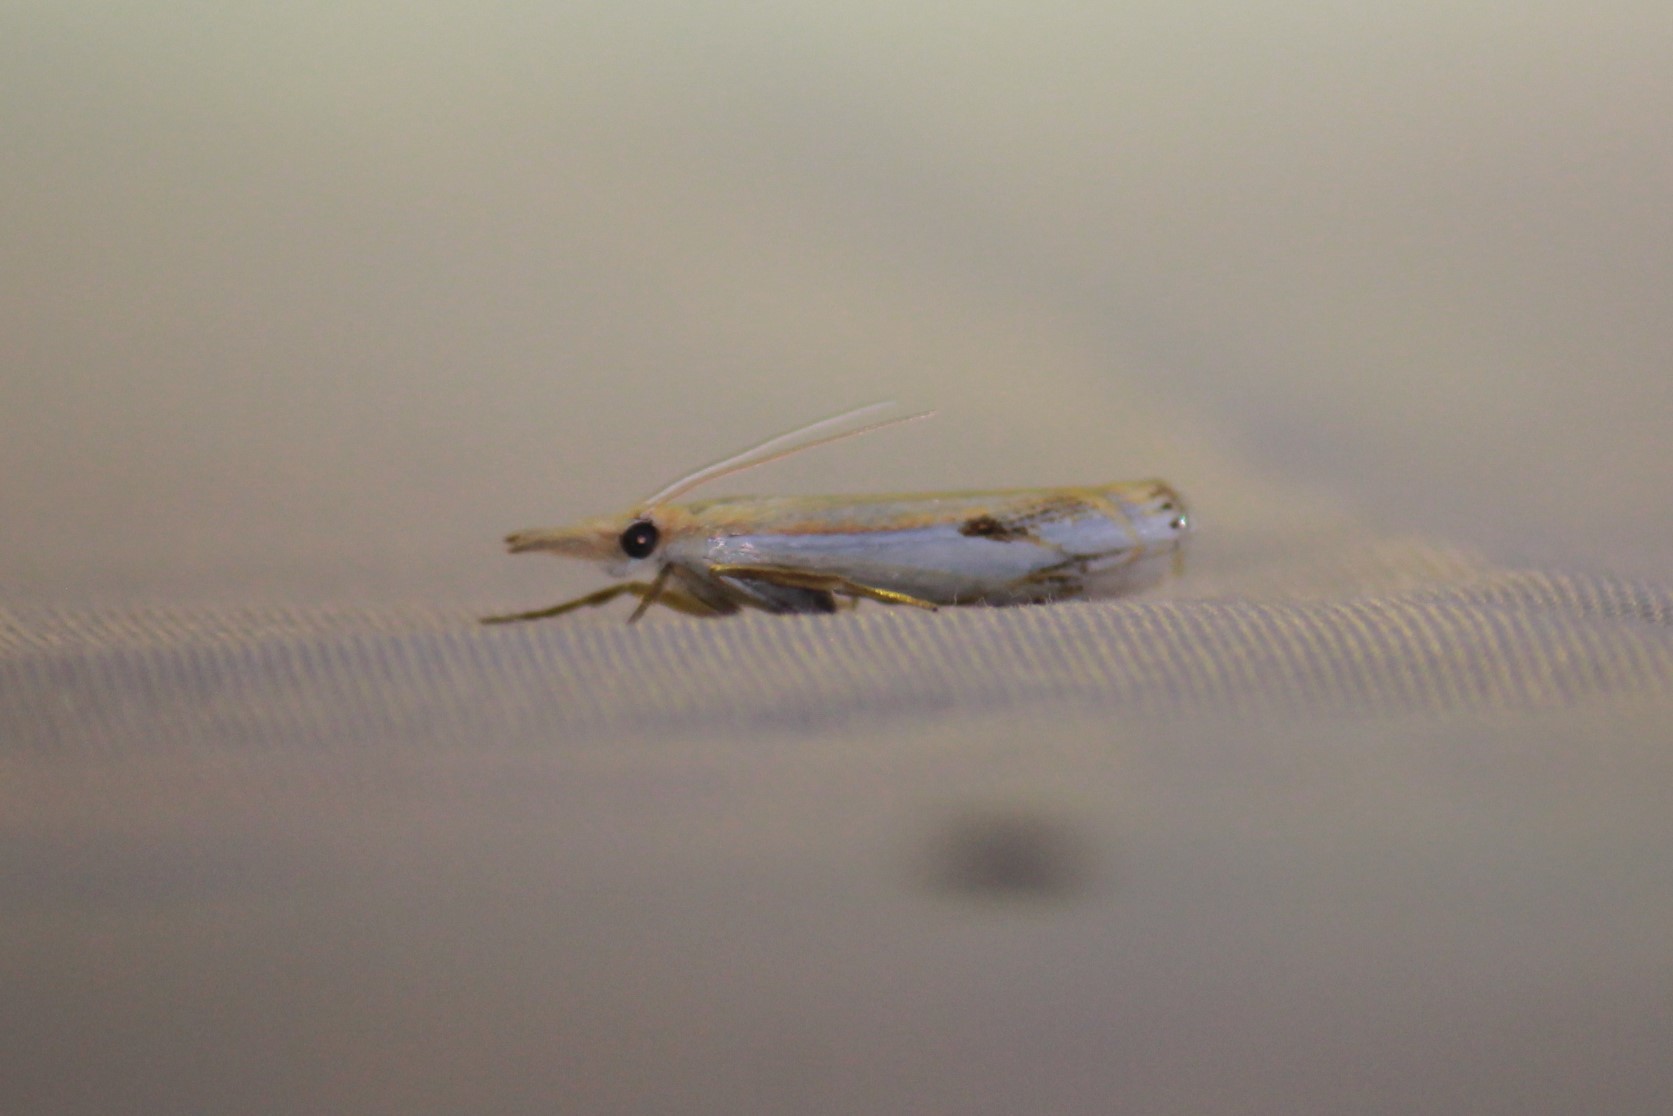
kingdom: Animalia
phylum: Arthropoda
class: Insecta
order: Lepidoptera
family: Crambidae
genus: Crambus
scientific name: Crambus agitatellus
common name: Double-banded grass-veneer
